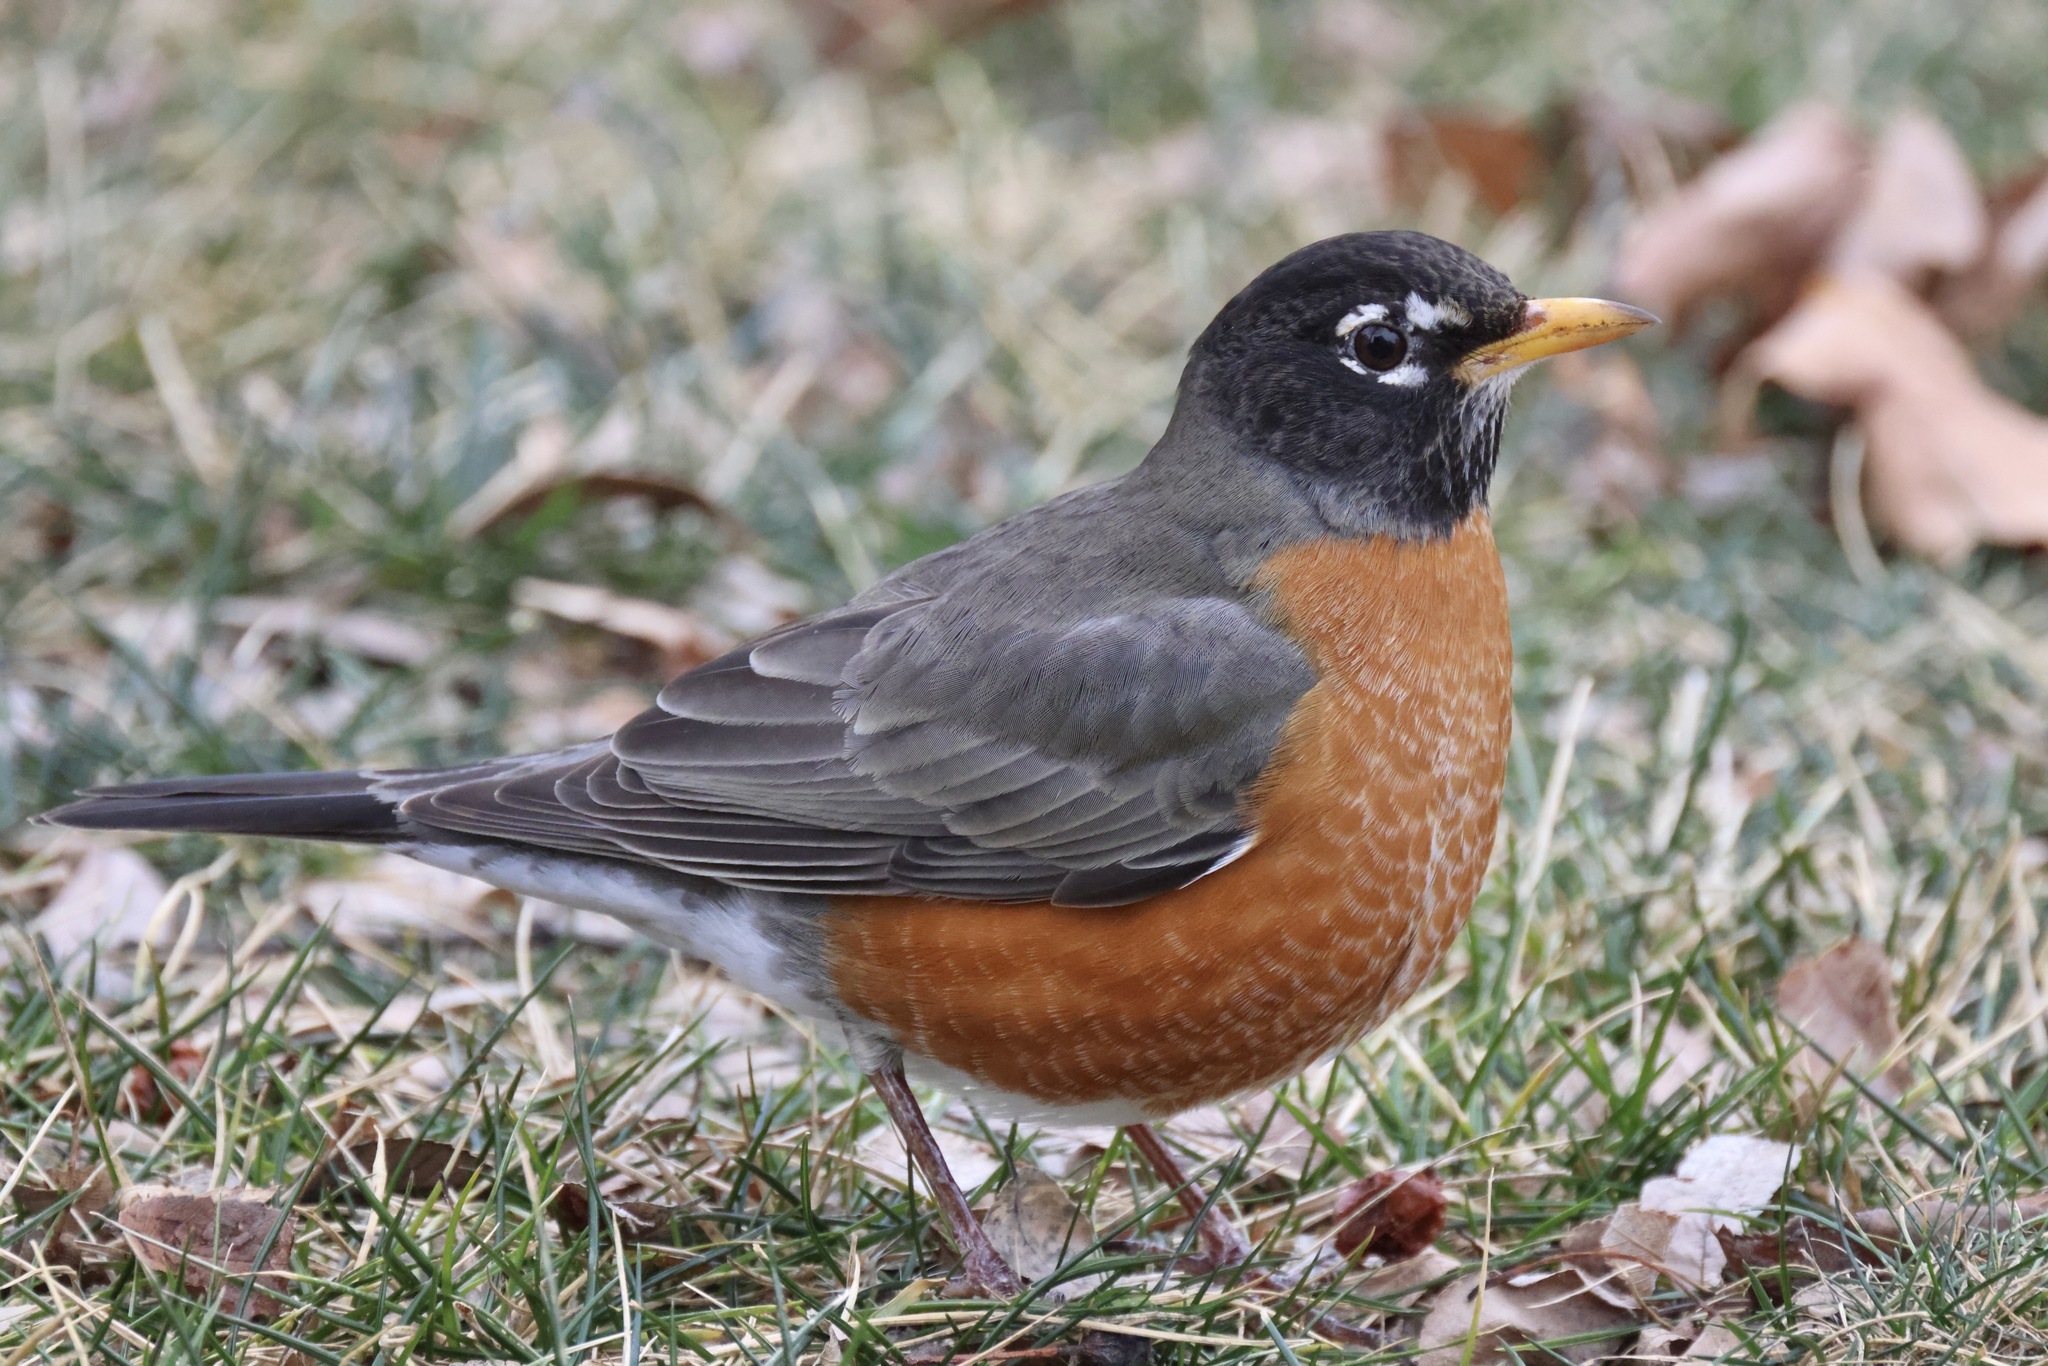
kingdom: Animalia
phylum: Chordata
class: Aves
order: Passeriformes
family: Turdidae
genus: Turdus
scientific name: Turdus migratorius
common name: American robin
